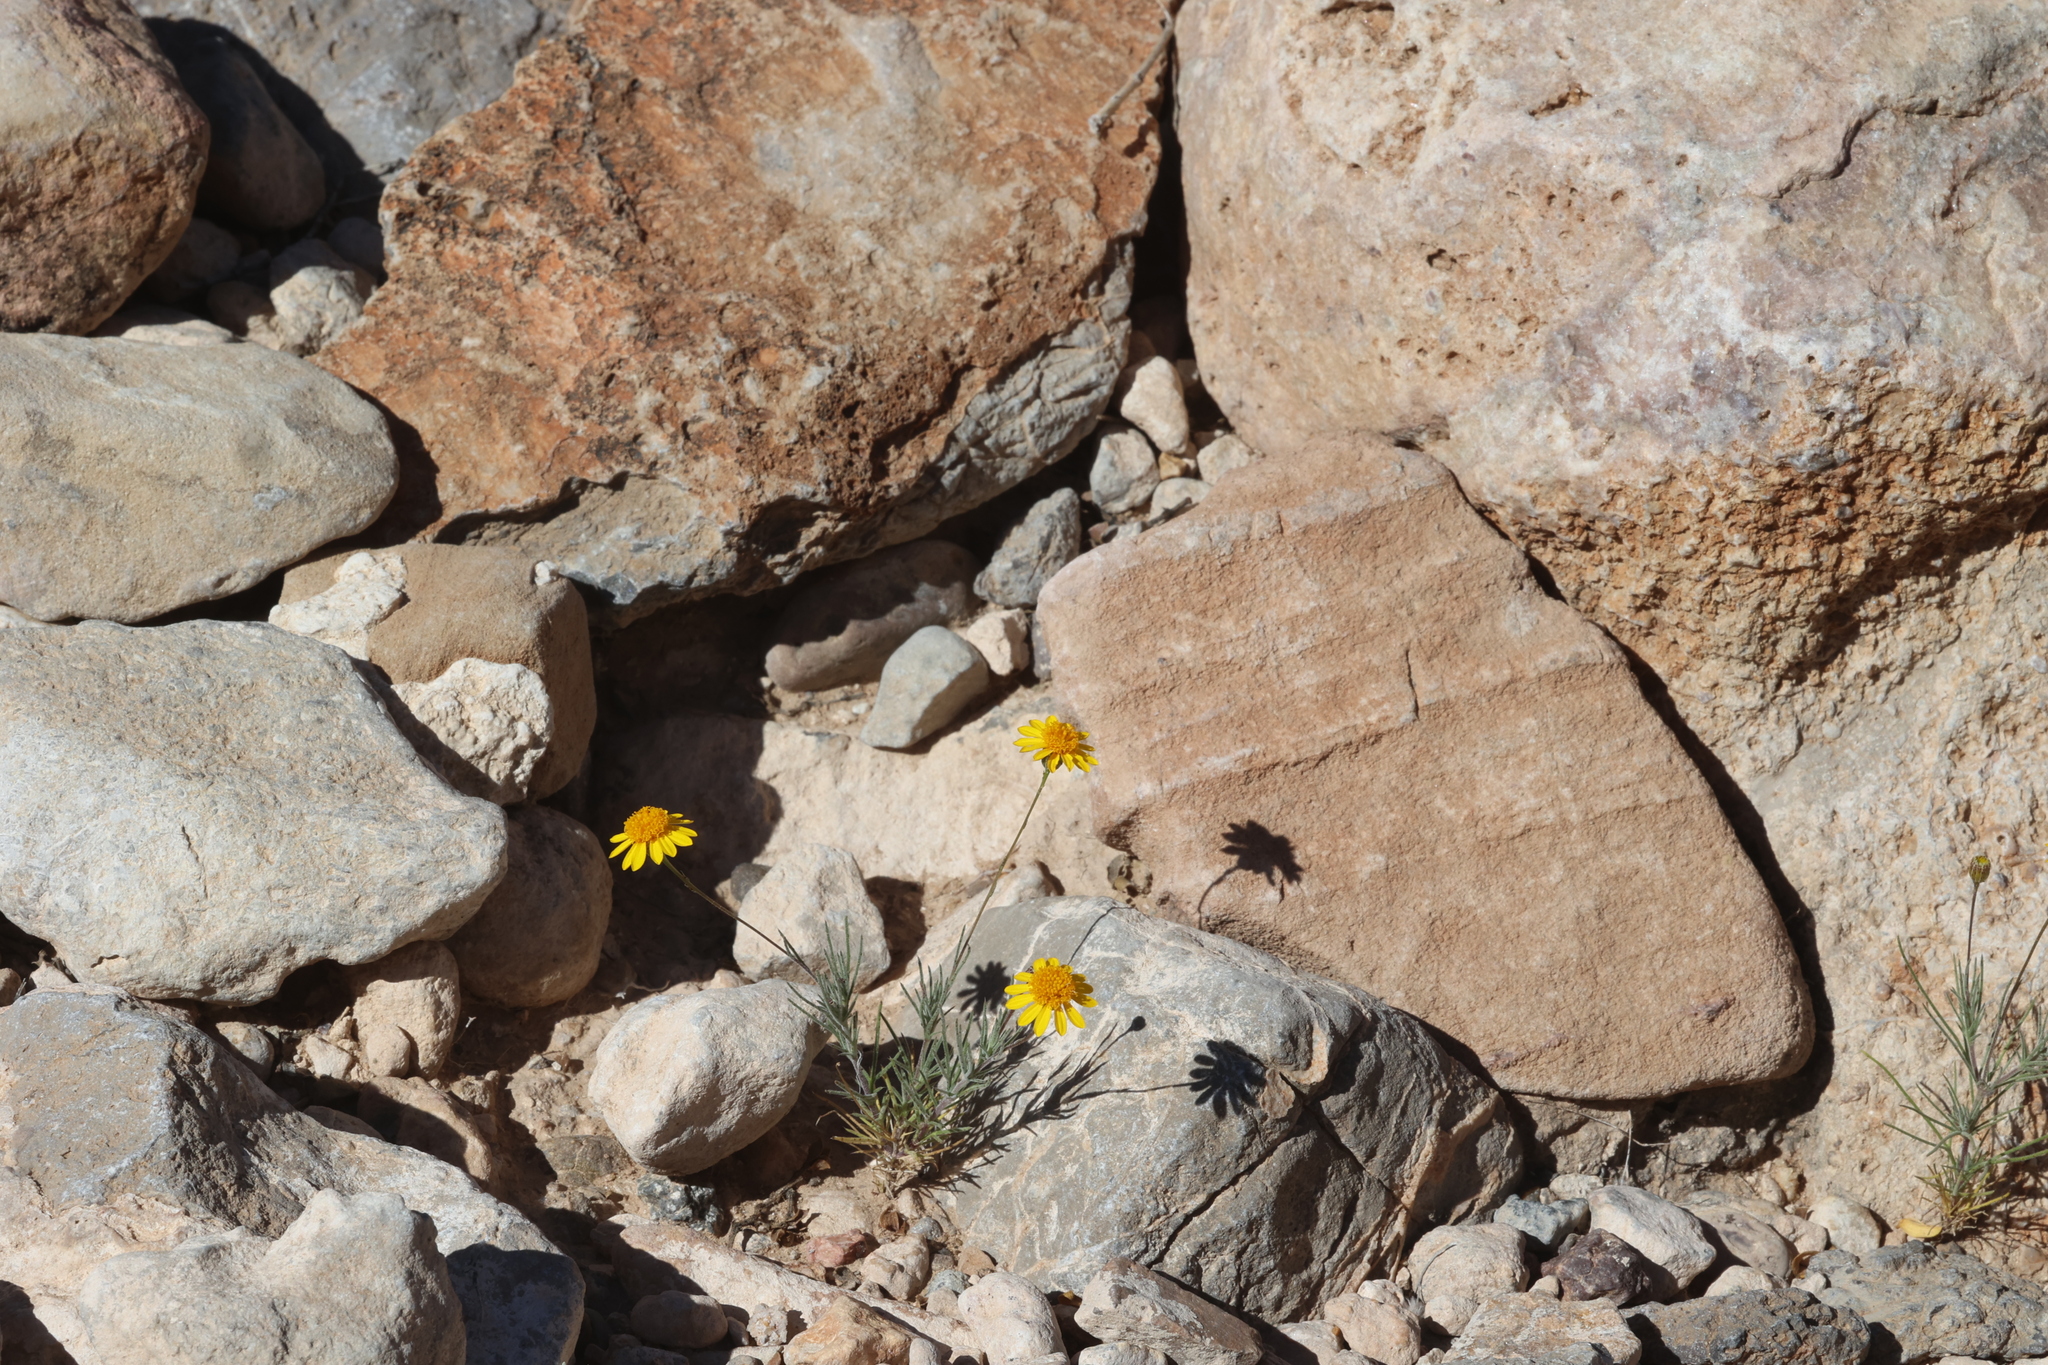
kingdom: Plantae
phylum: Tracheophyta
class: Magnoliopsida
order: Asterales
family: Asteraceae
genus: Thymophylla
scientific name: Thymophylla pentachaeta
